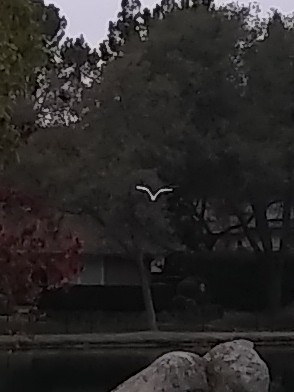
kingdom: Animalia
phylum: Chordata
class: Aves
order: Pelecaniformes
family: Ardeidae
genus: Ardea
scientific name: Ardea alba
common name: Great egret
